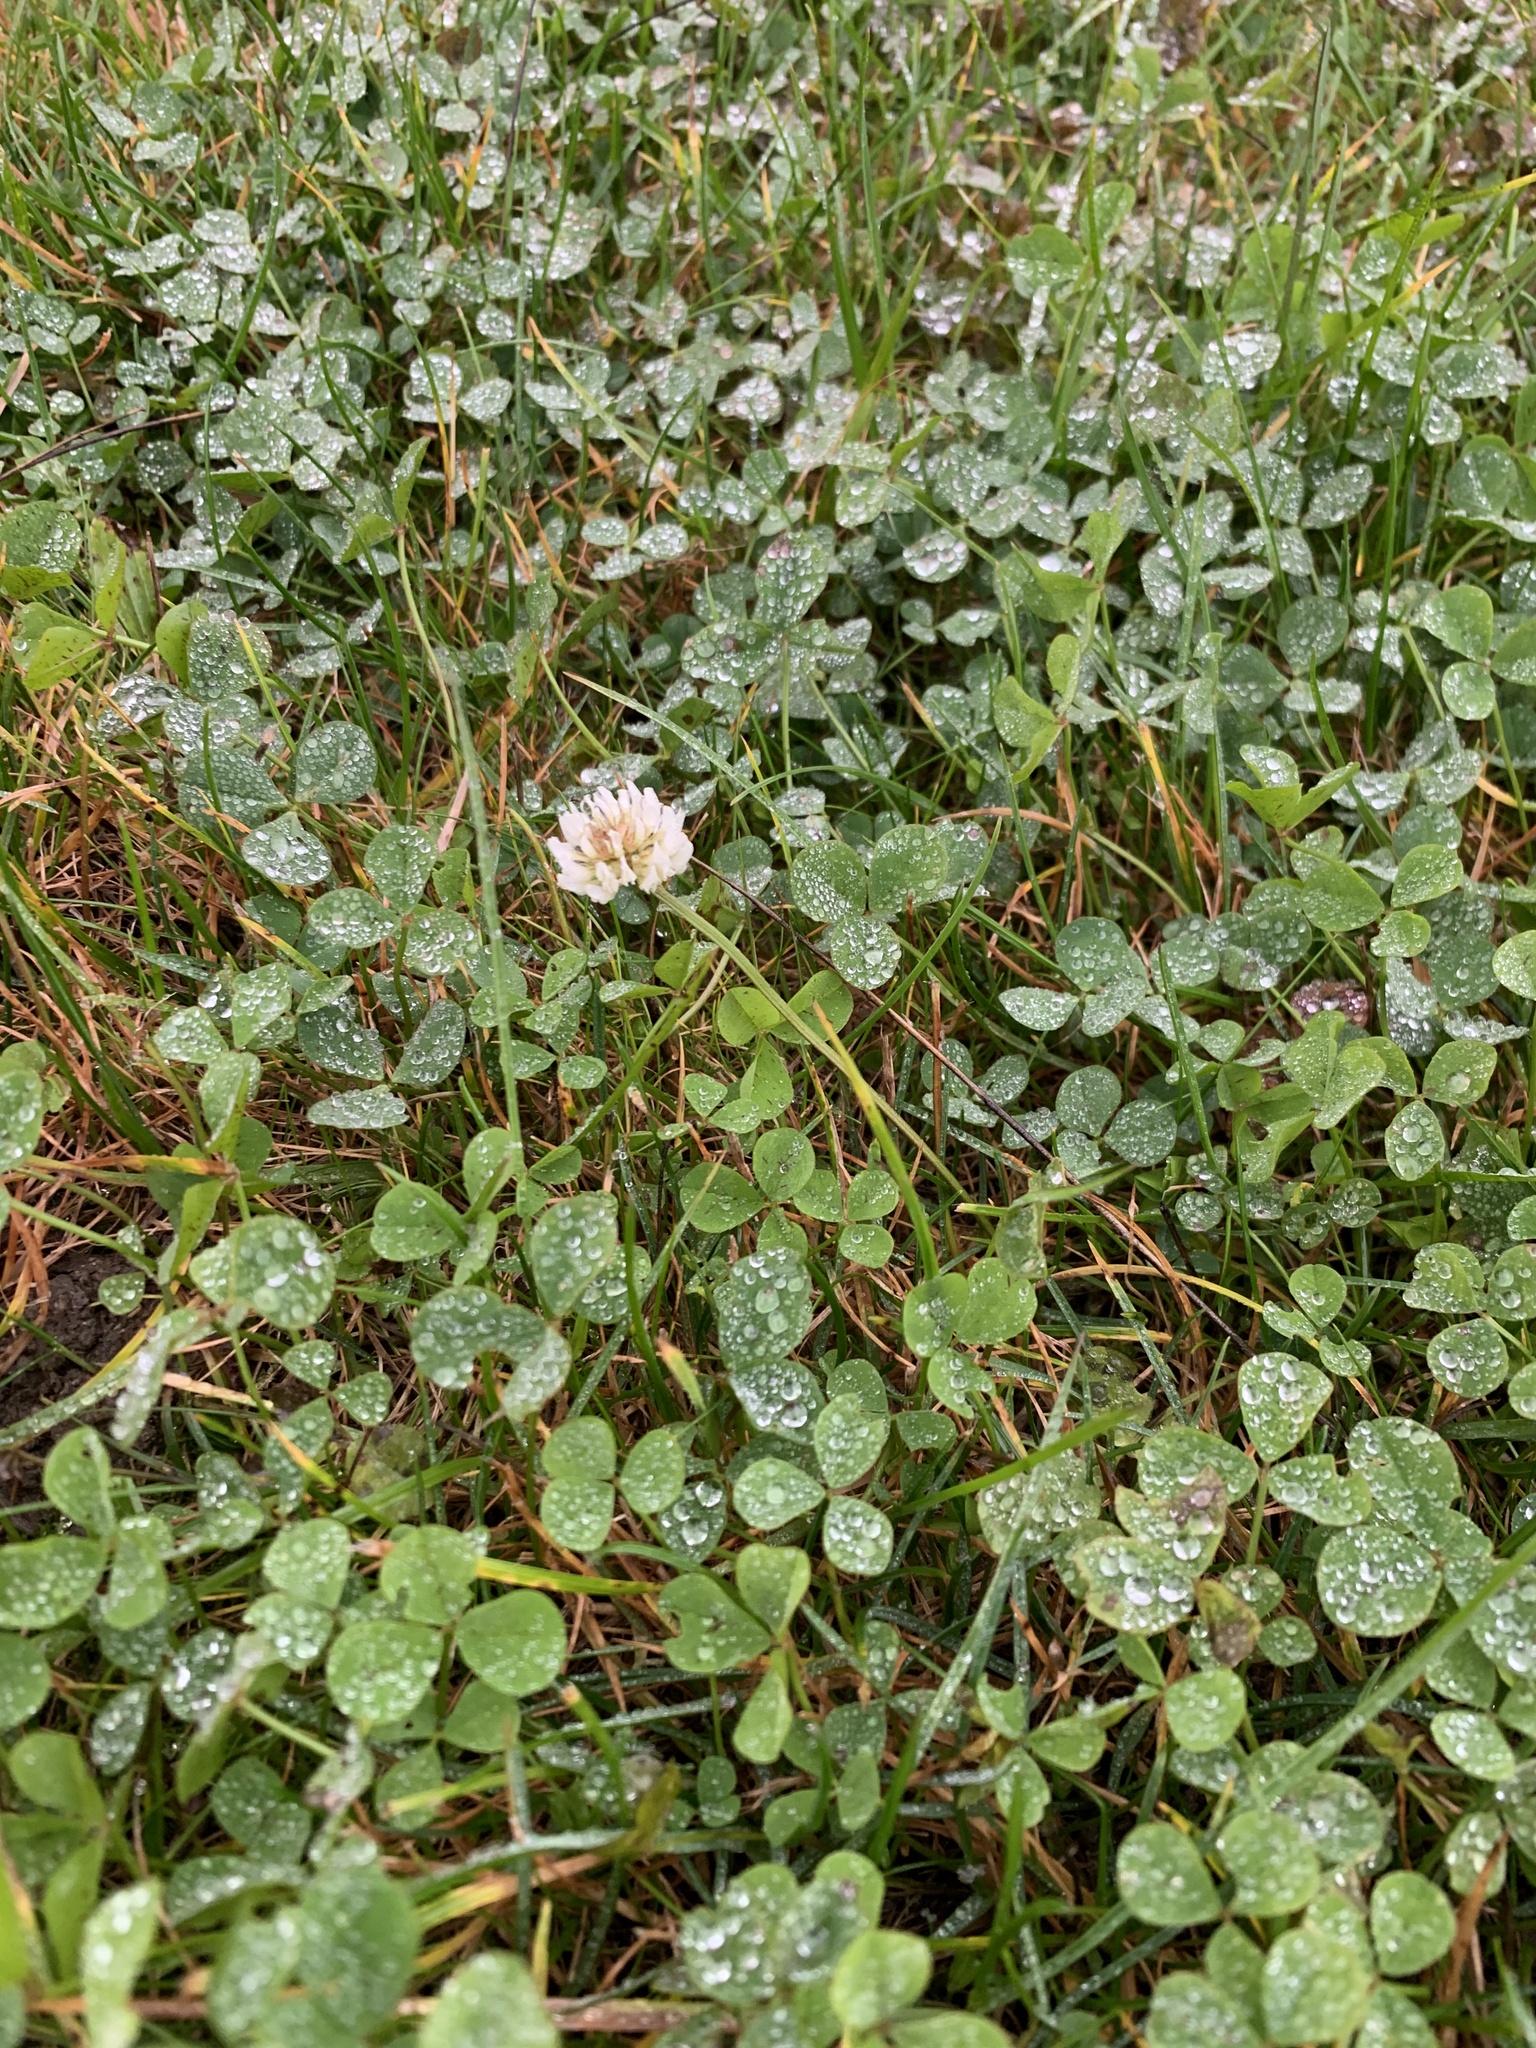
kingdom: Plantae
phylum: Tracheophyta
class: Magnoliopsida
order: Fabales
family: Fabaceae
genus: Trifolium
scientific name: Trifolium repens
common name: White clover
